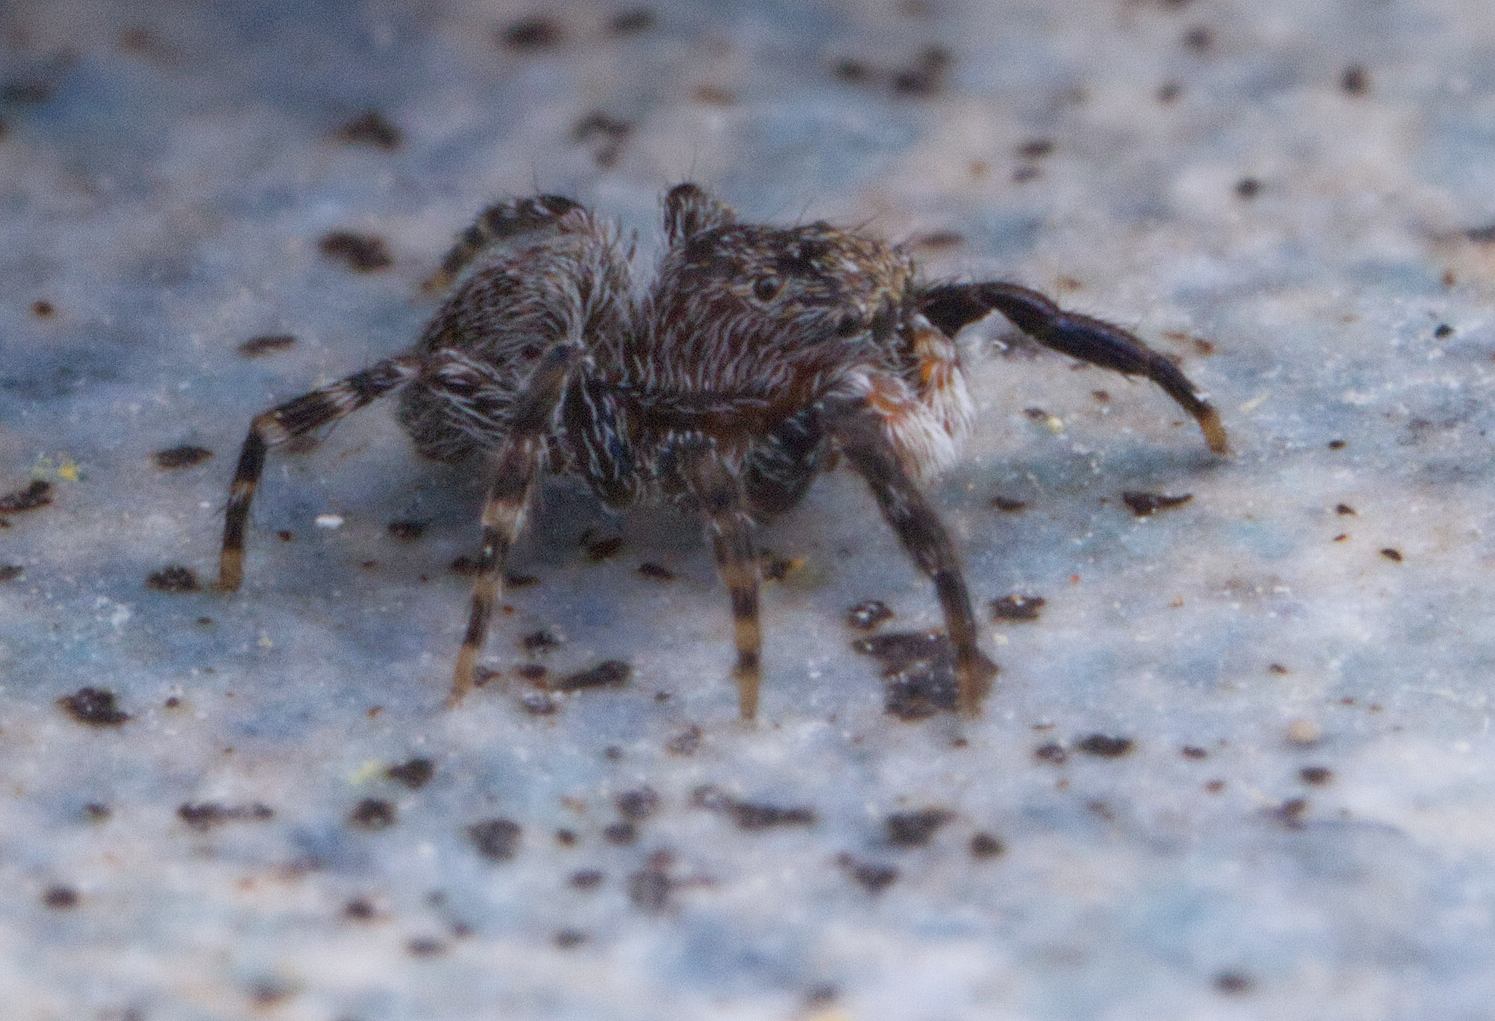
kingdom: Animalia
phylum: Arthropoda
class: Arachnida
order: Araneae
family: Salticidae
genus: Talavera
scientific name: Talavera minuta
